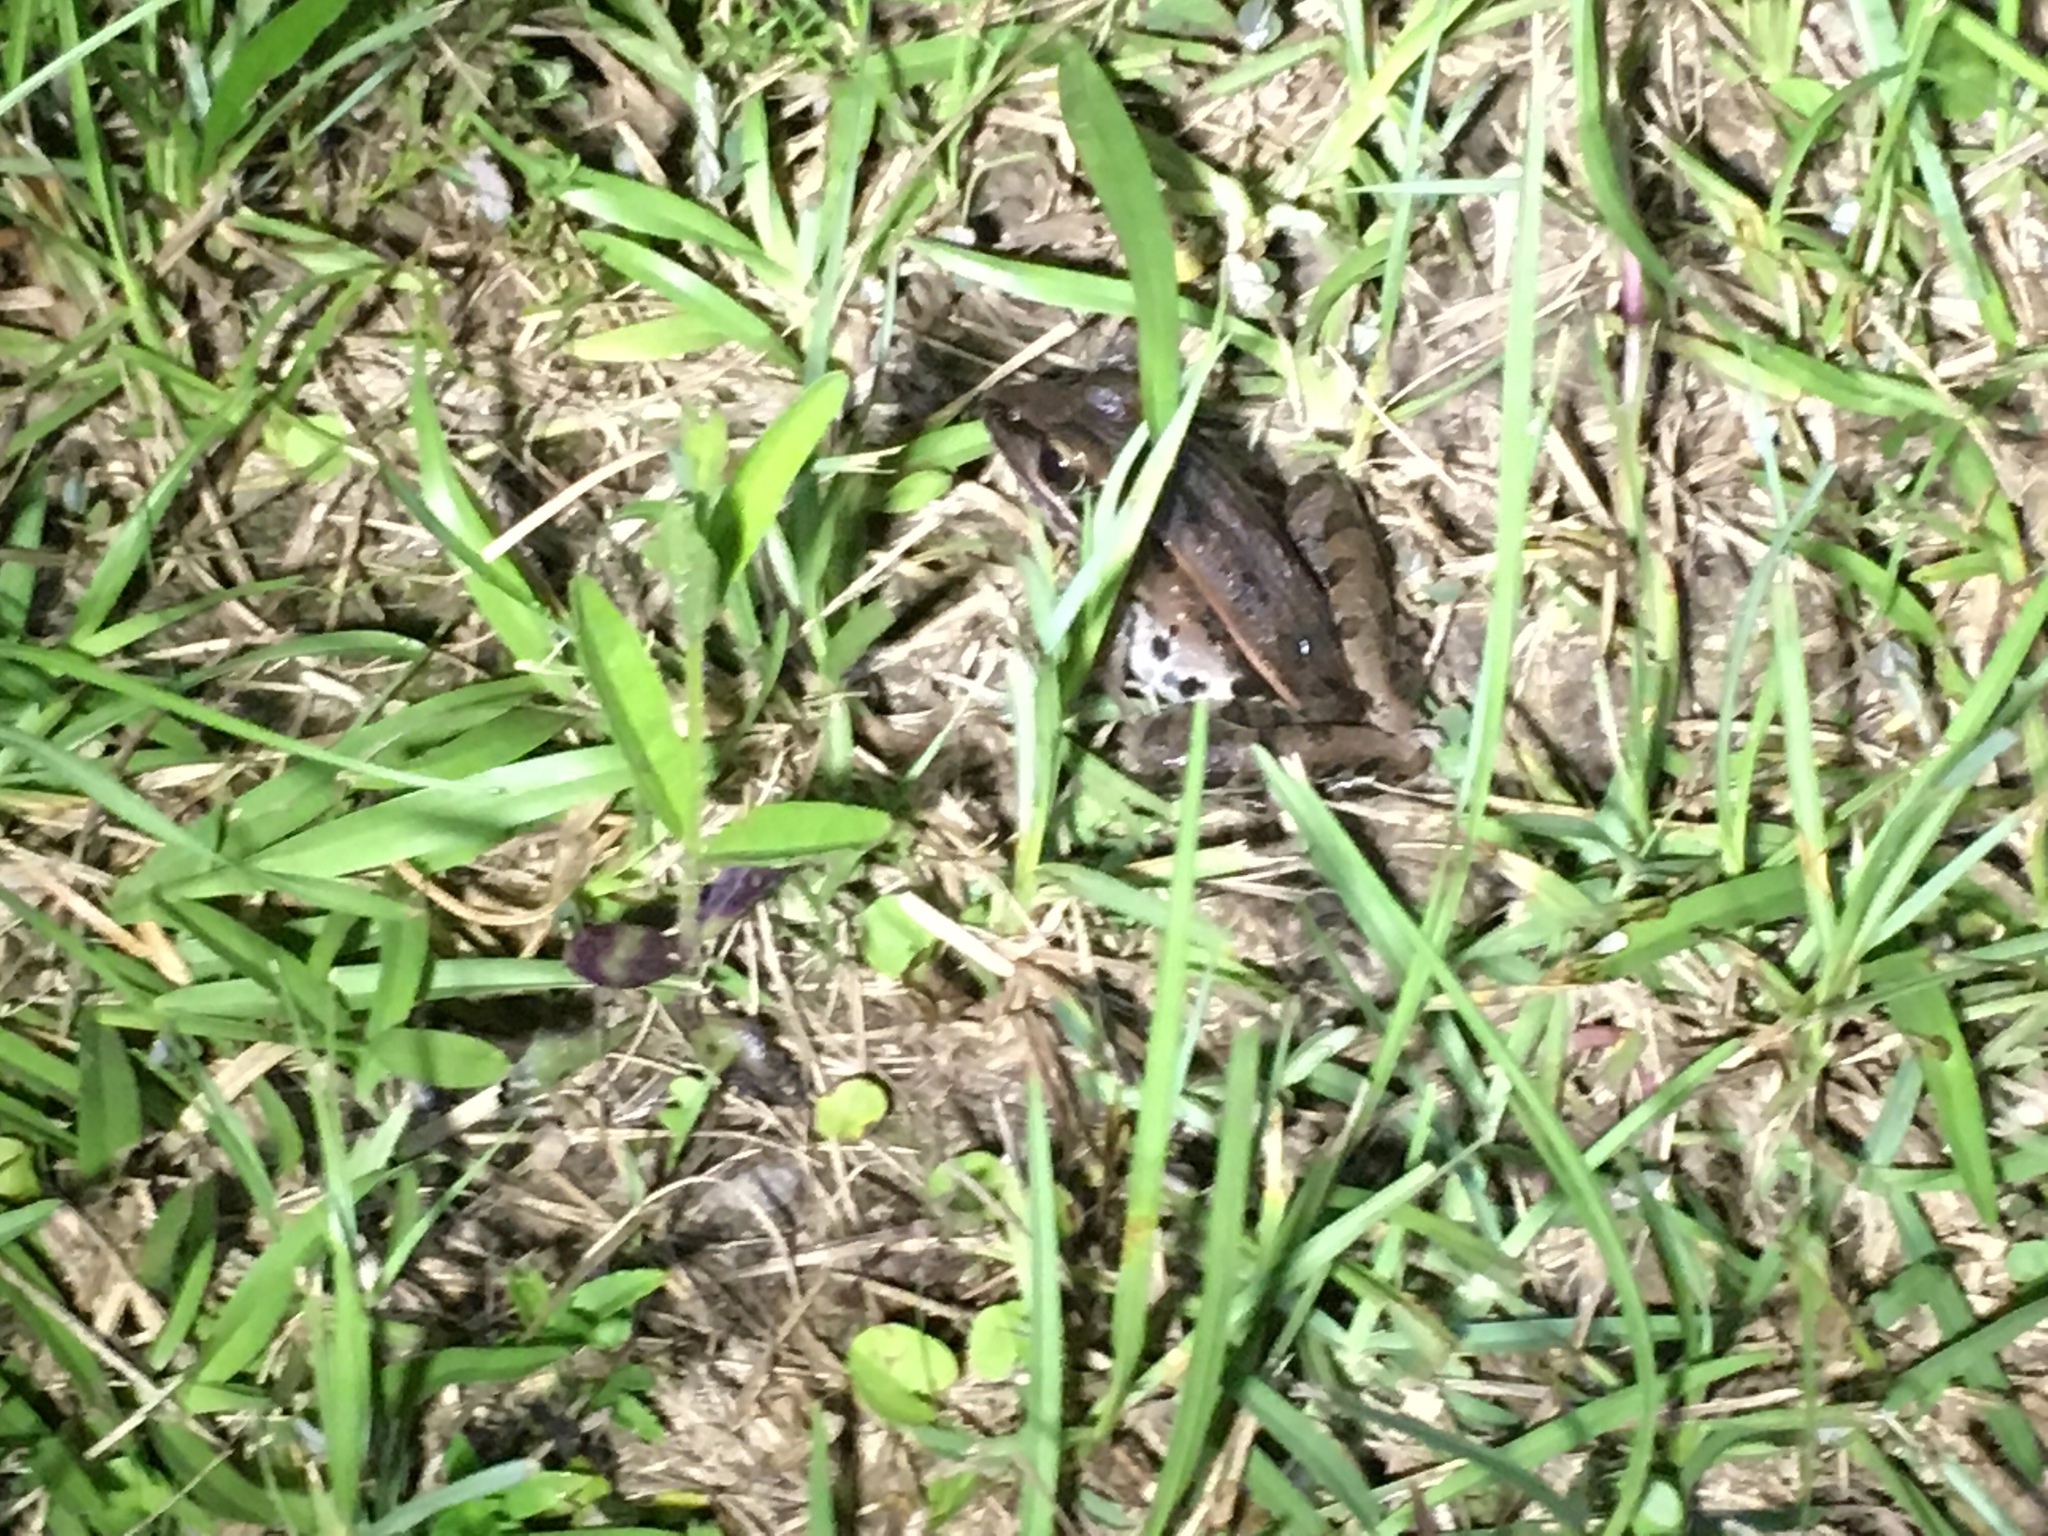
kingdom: Animalia
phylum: Chordata
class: Amphibia
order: Anura
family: Ranidae
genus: Lithobates
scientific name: Lithobates sphenocephalus
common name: Southern leopard frog
